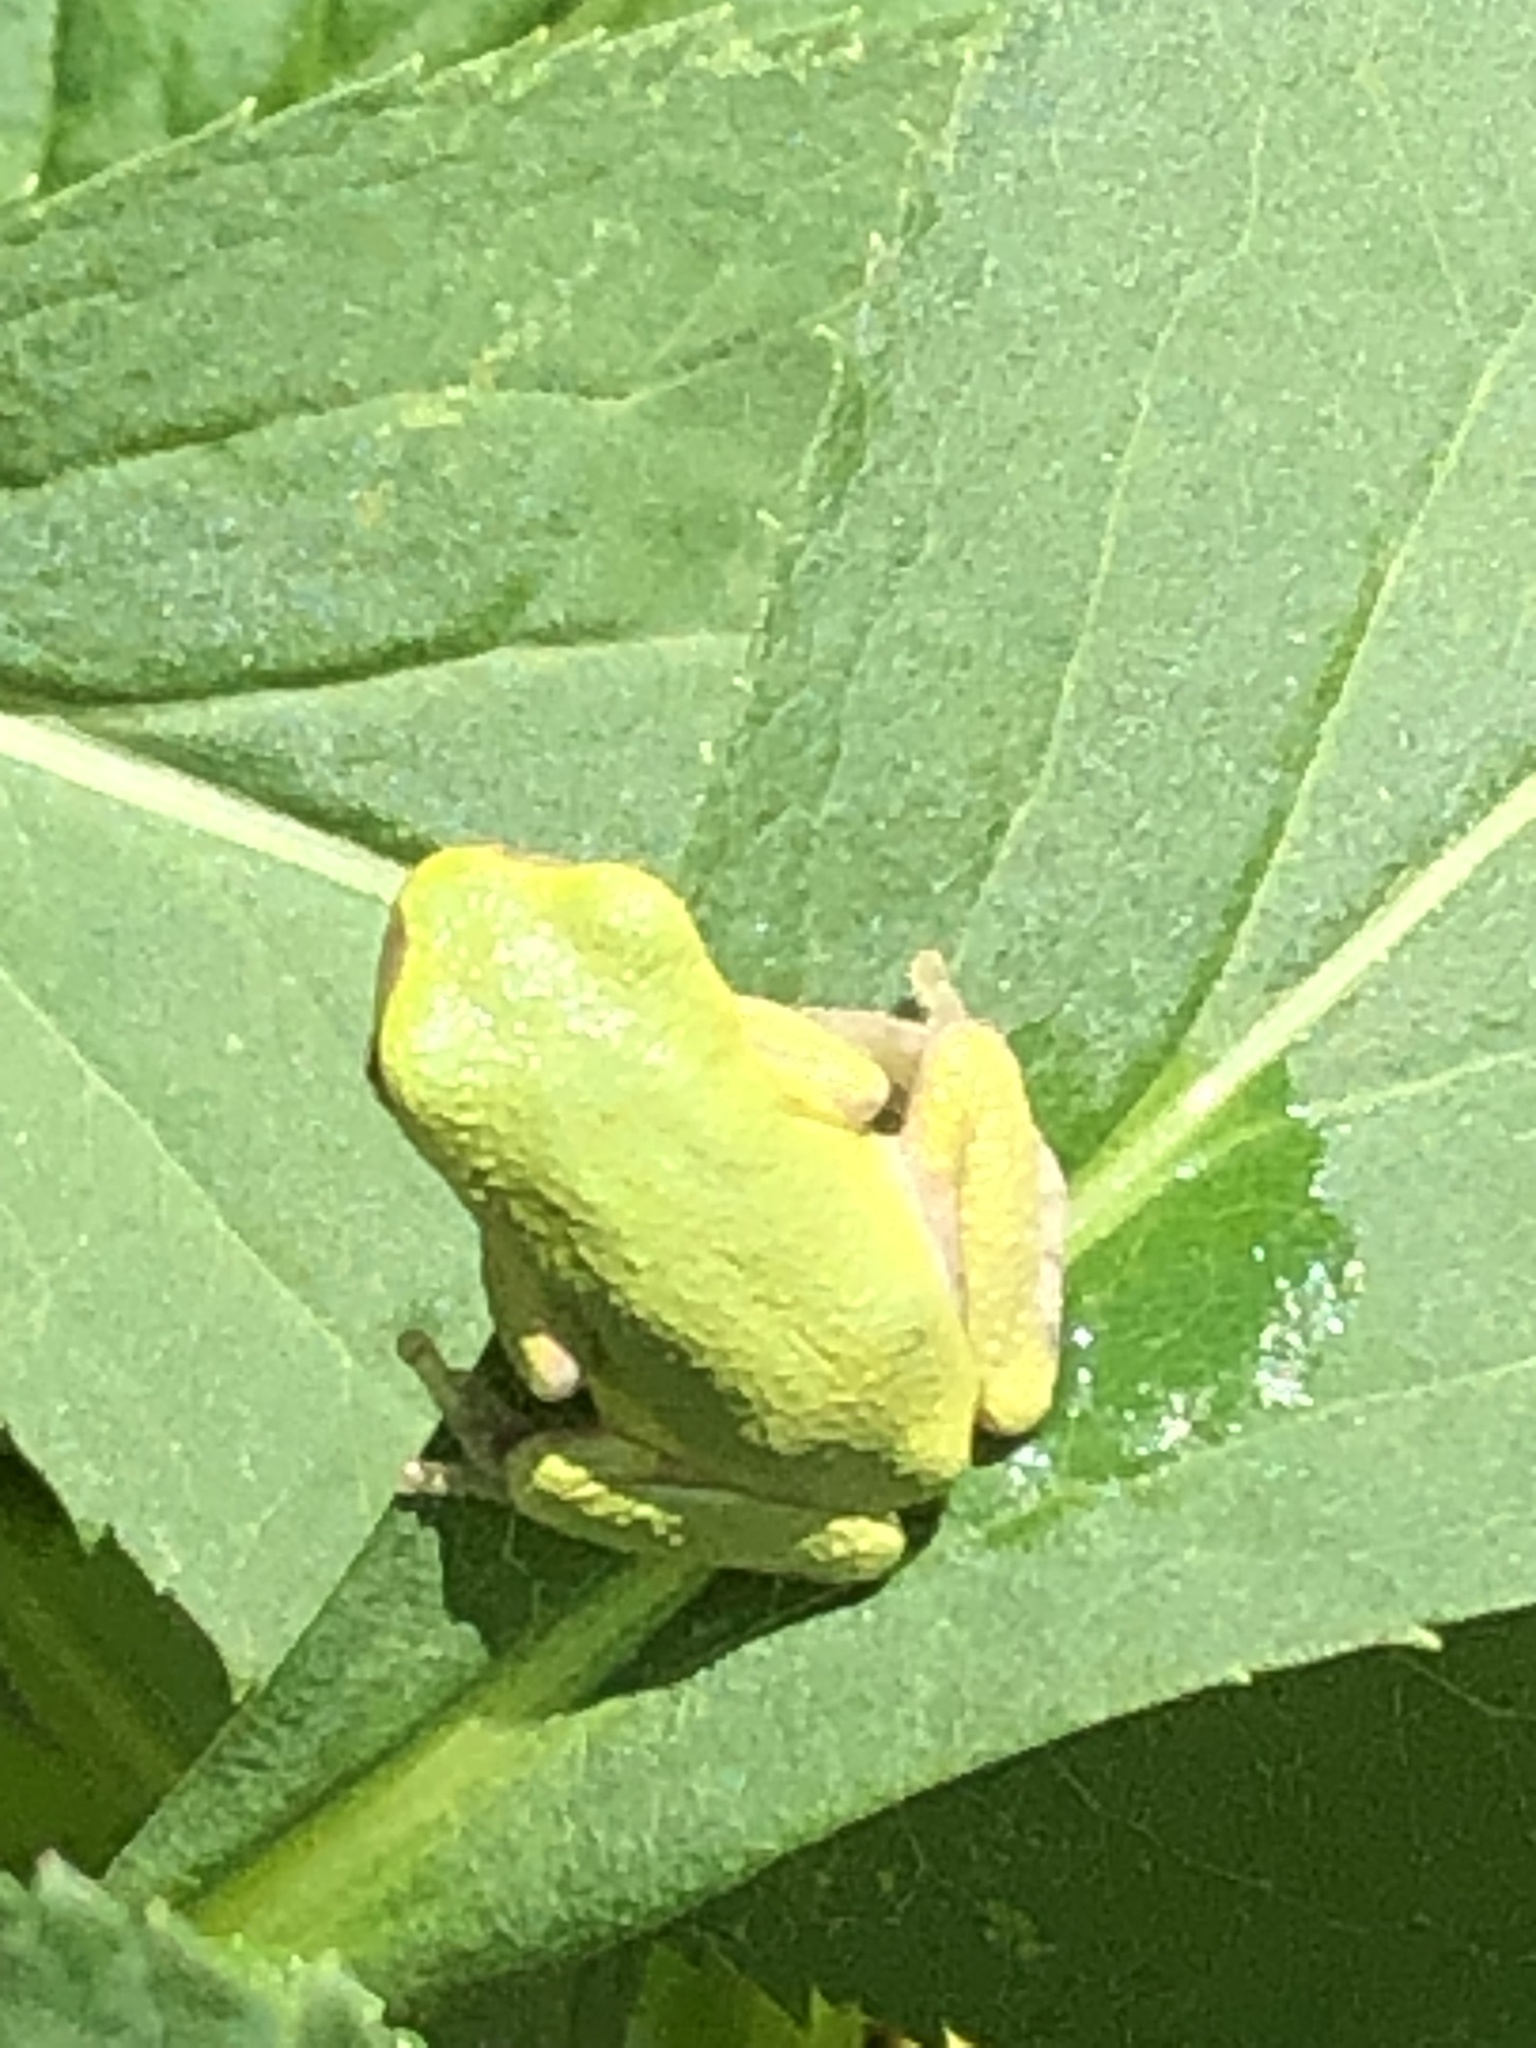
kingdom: Animalia
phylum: Chordata
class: Amphibia
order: Anura
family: Hylidae
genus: Dryophytes
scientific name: Dryophytes versicolor
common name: Gray treefrog
